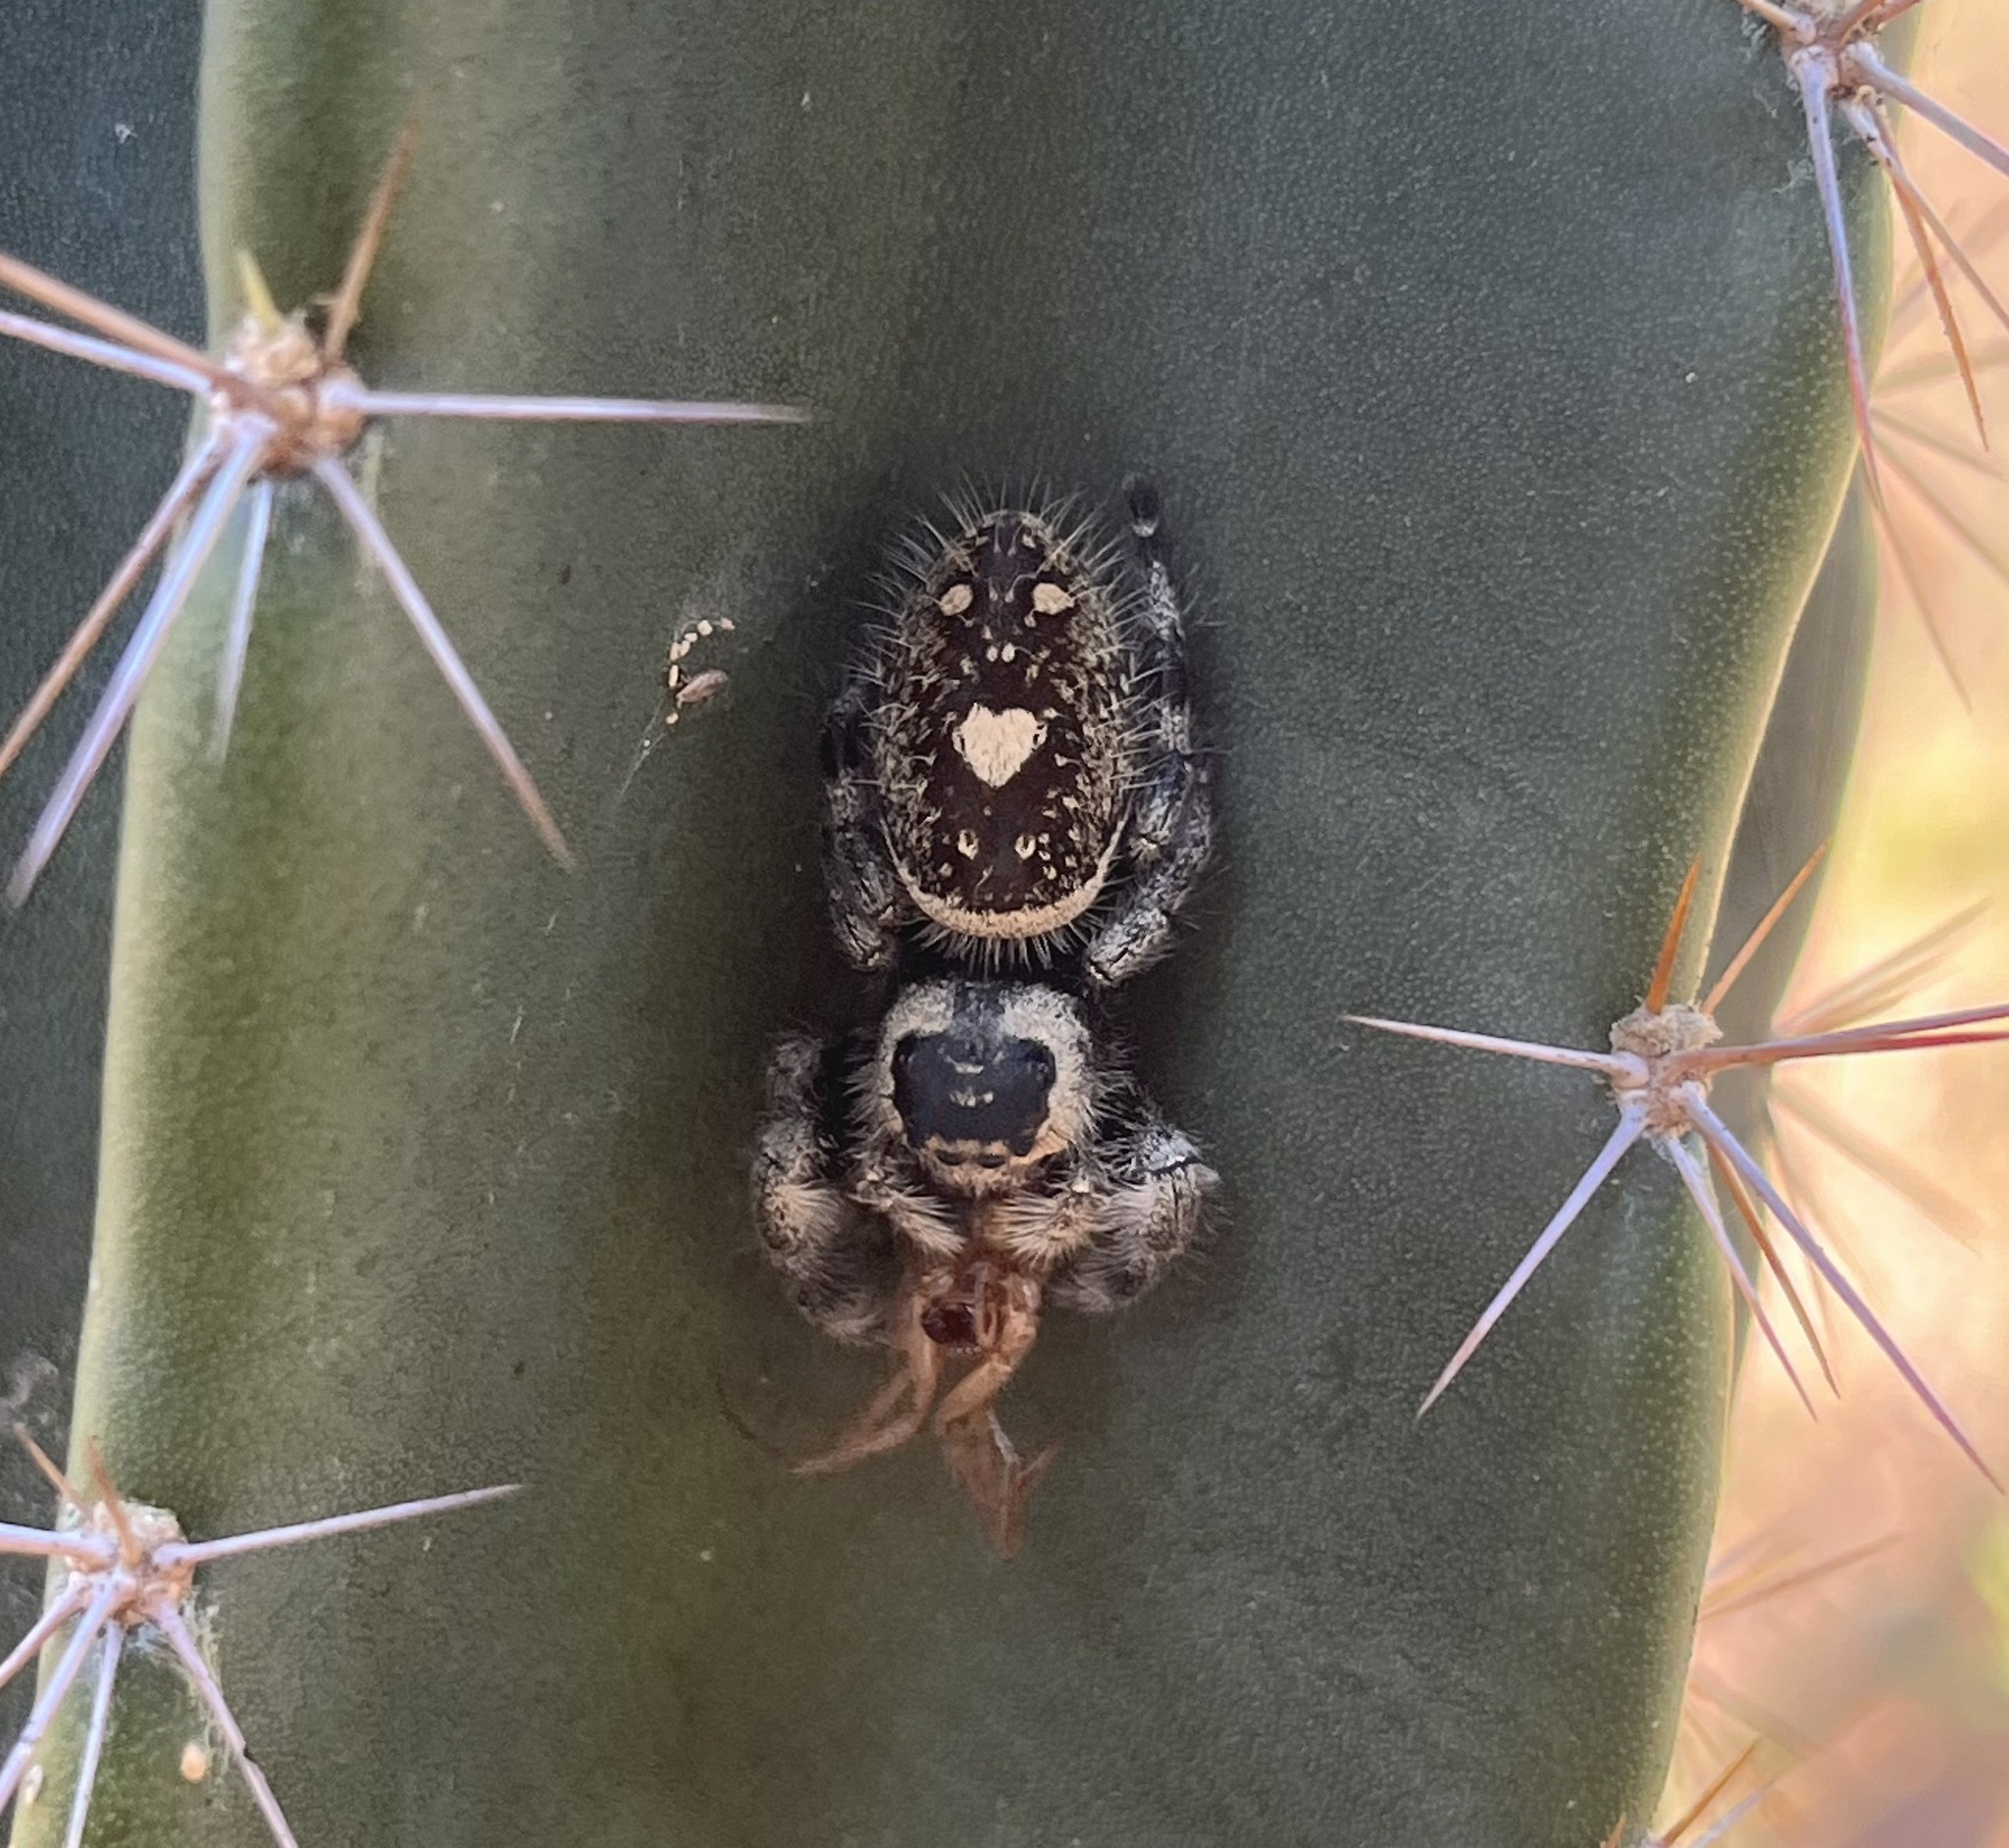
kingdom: Animalia
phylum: Arthropoda
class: Arachnida
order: Araneae
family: Salticidae
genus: Phidippus
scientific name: Phidippus regius
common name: Regal jumper
